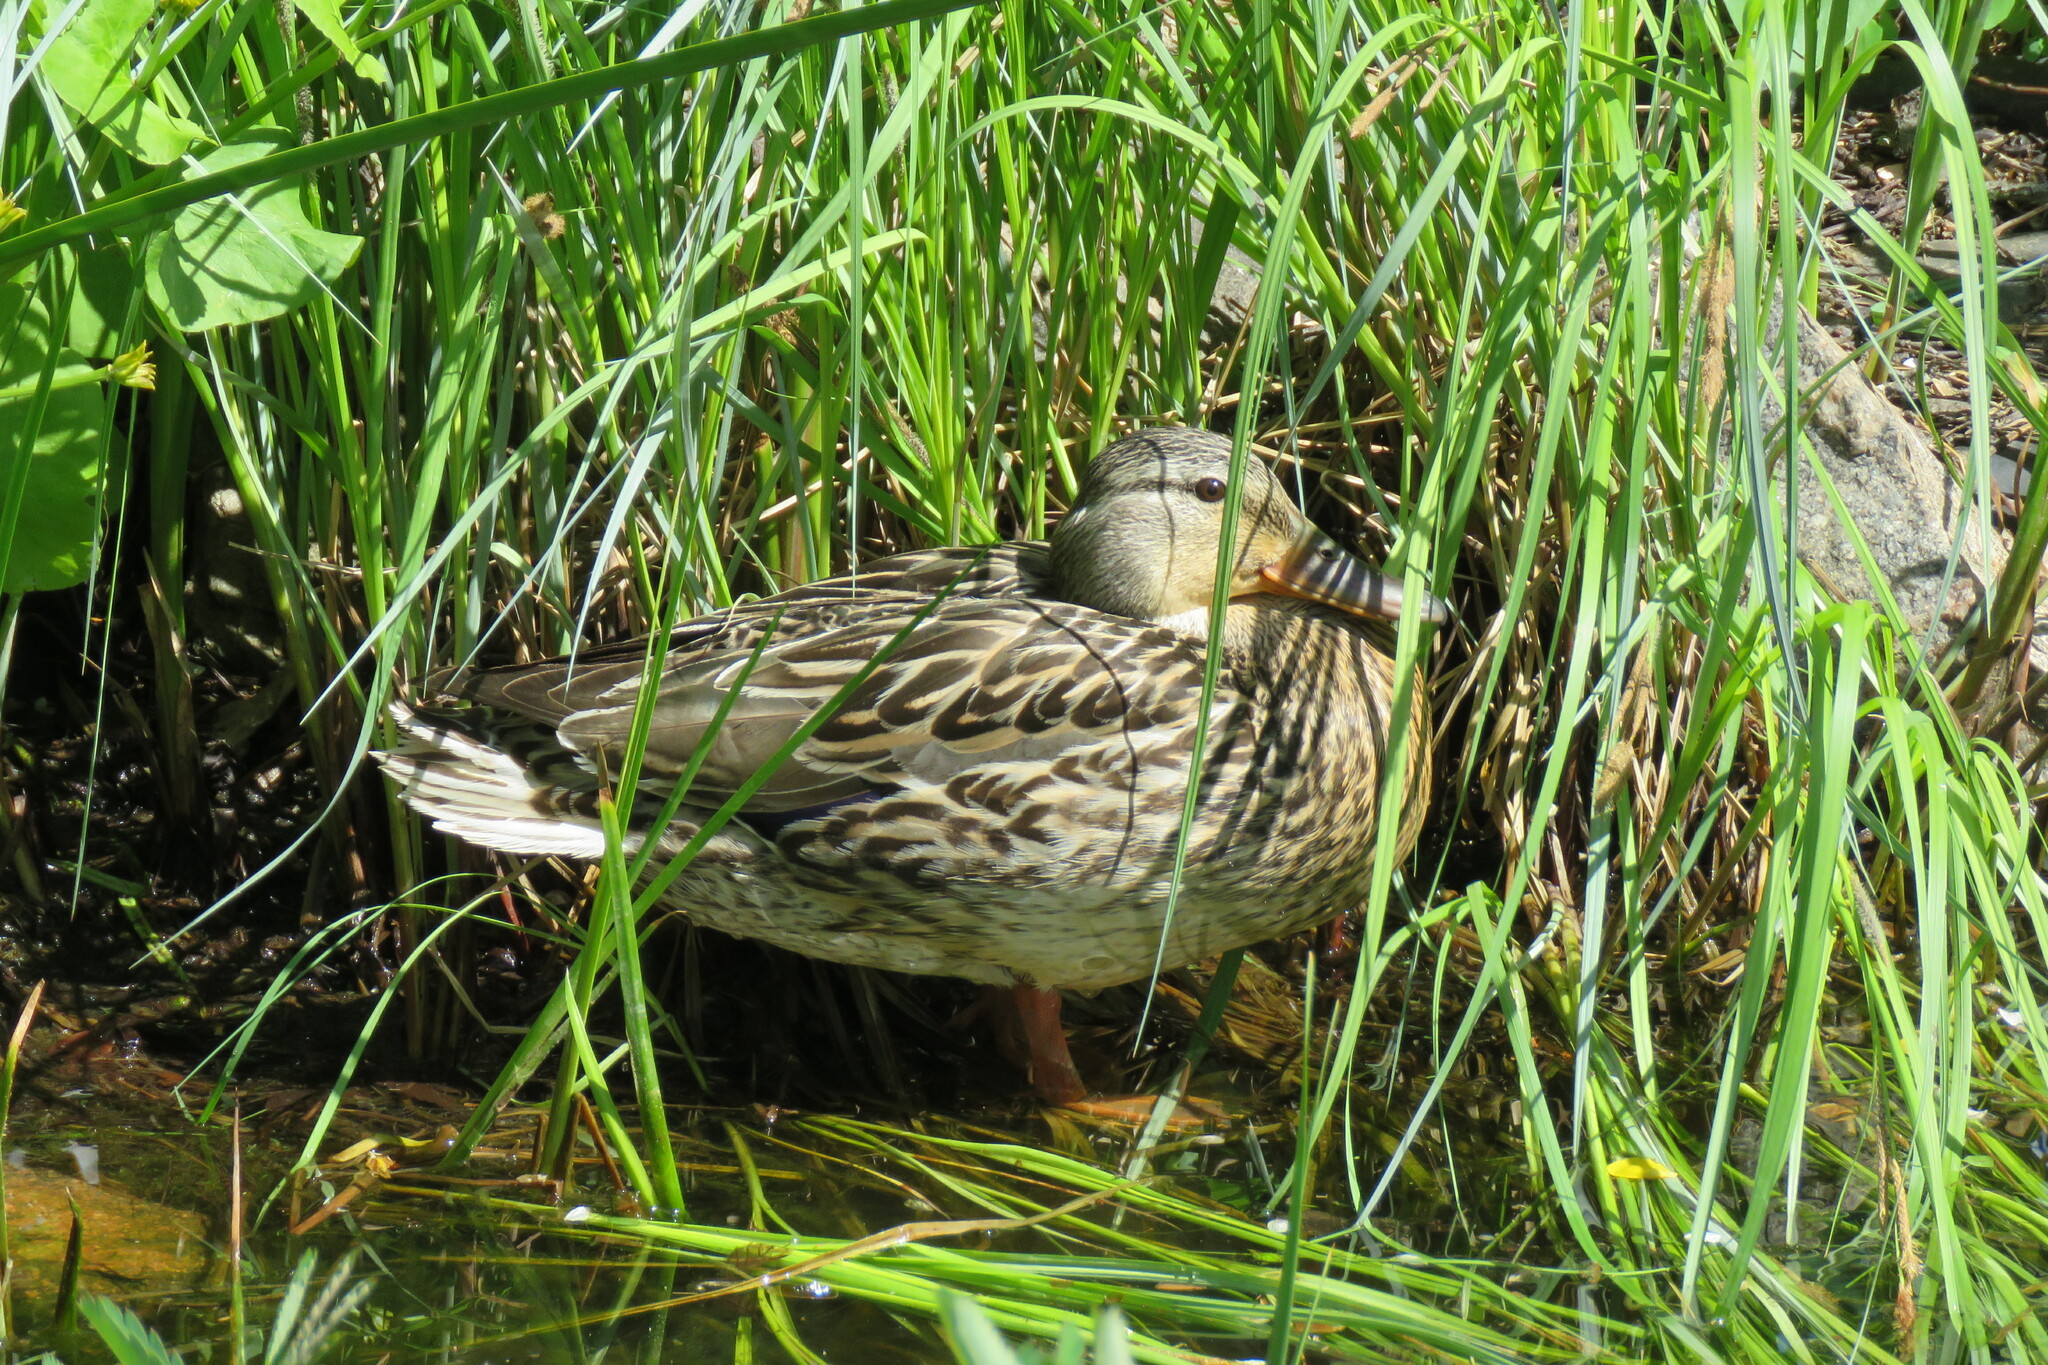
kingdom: Animalia
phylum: Chordata
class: Aves
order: Anseriformes
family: Anatidae
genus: Anas
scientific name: Anas platyrhynchos
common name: Mallard
